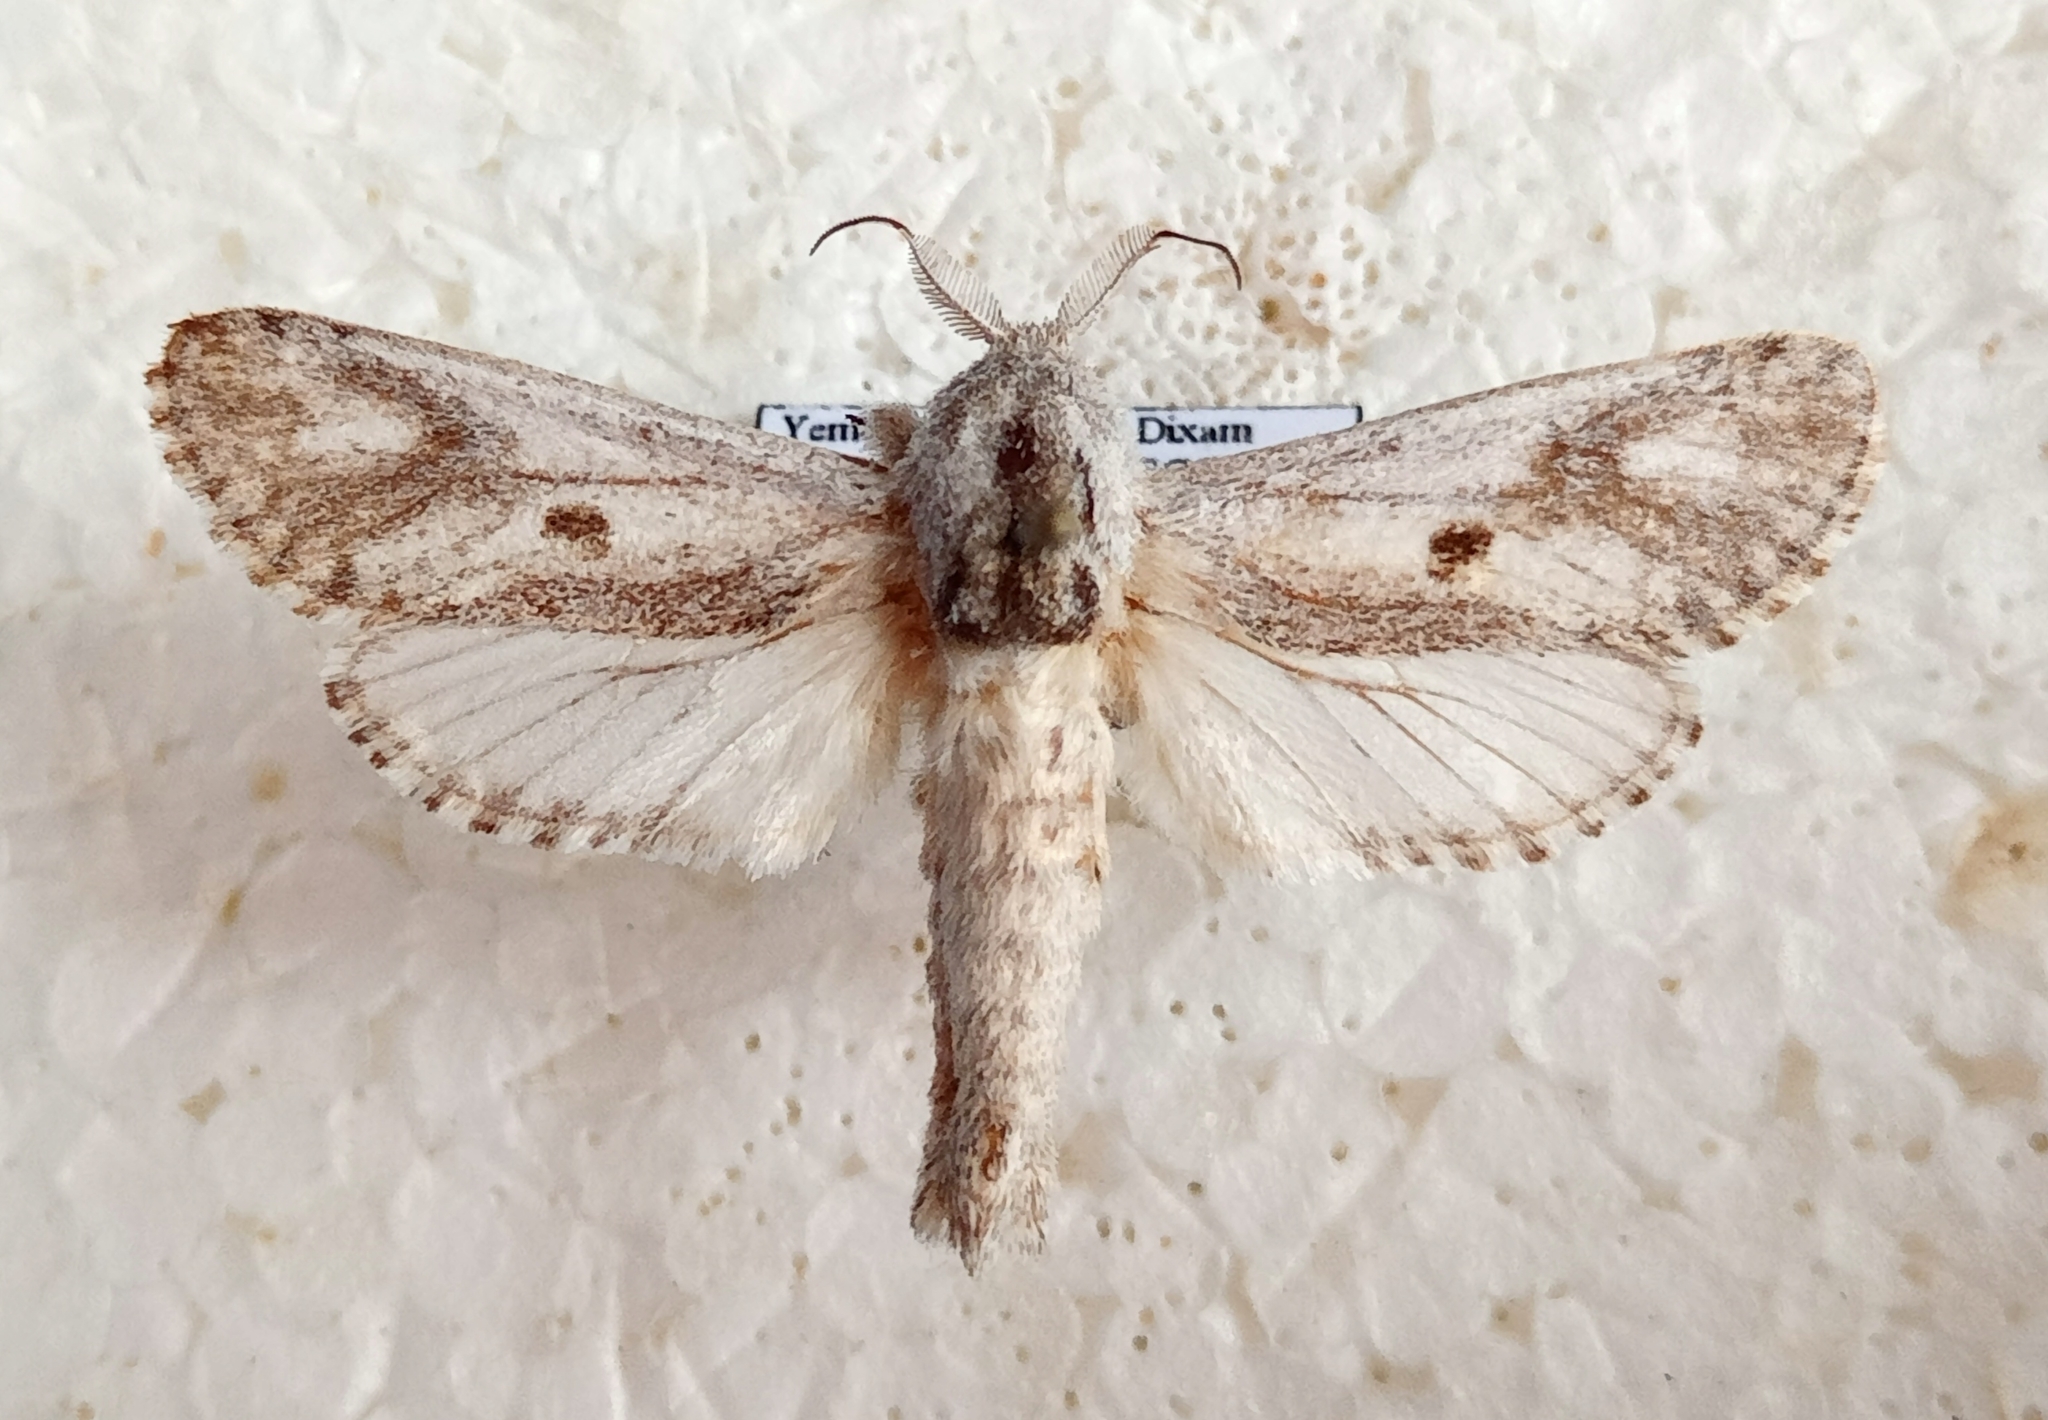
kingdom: Animalia
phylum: Arthropoda
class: Insecta
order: Lepidoptera
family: Cossidae
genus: Aethalopteryx
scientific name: Aethalopteryx diksami
